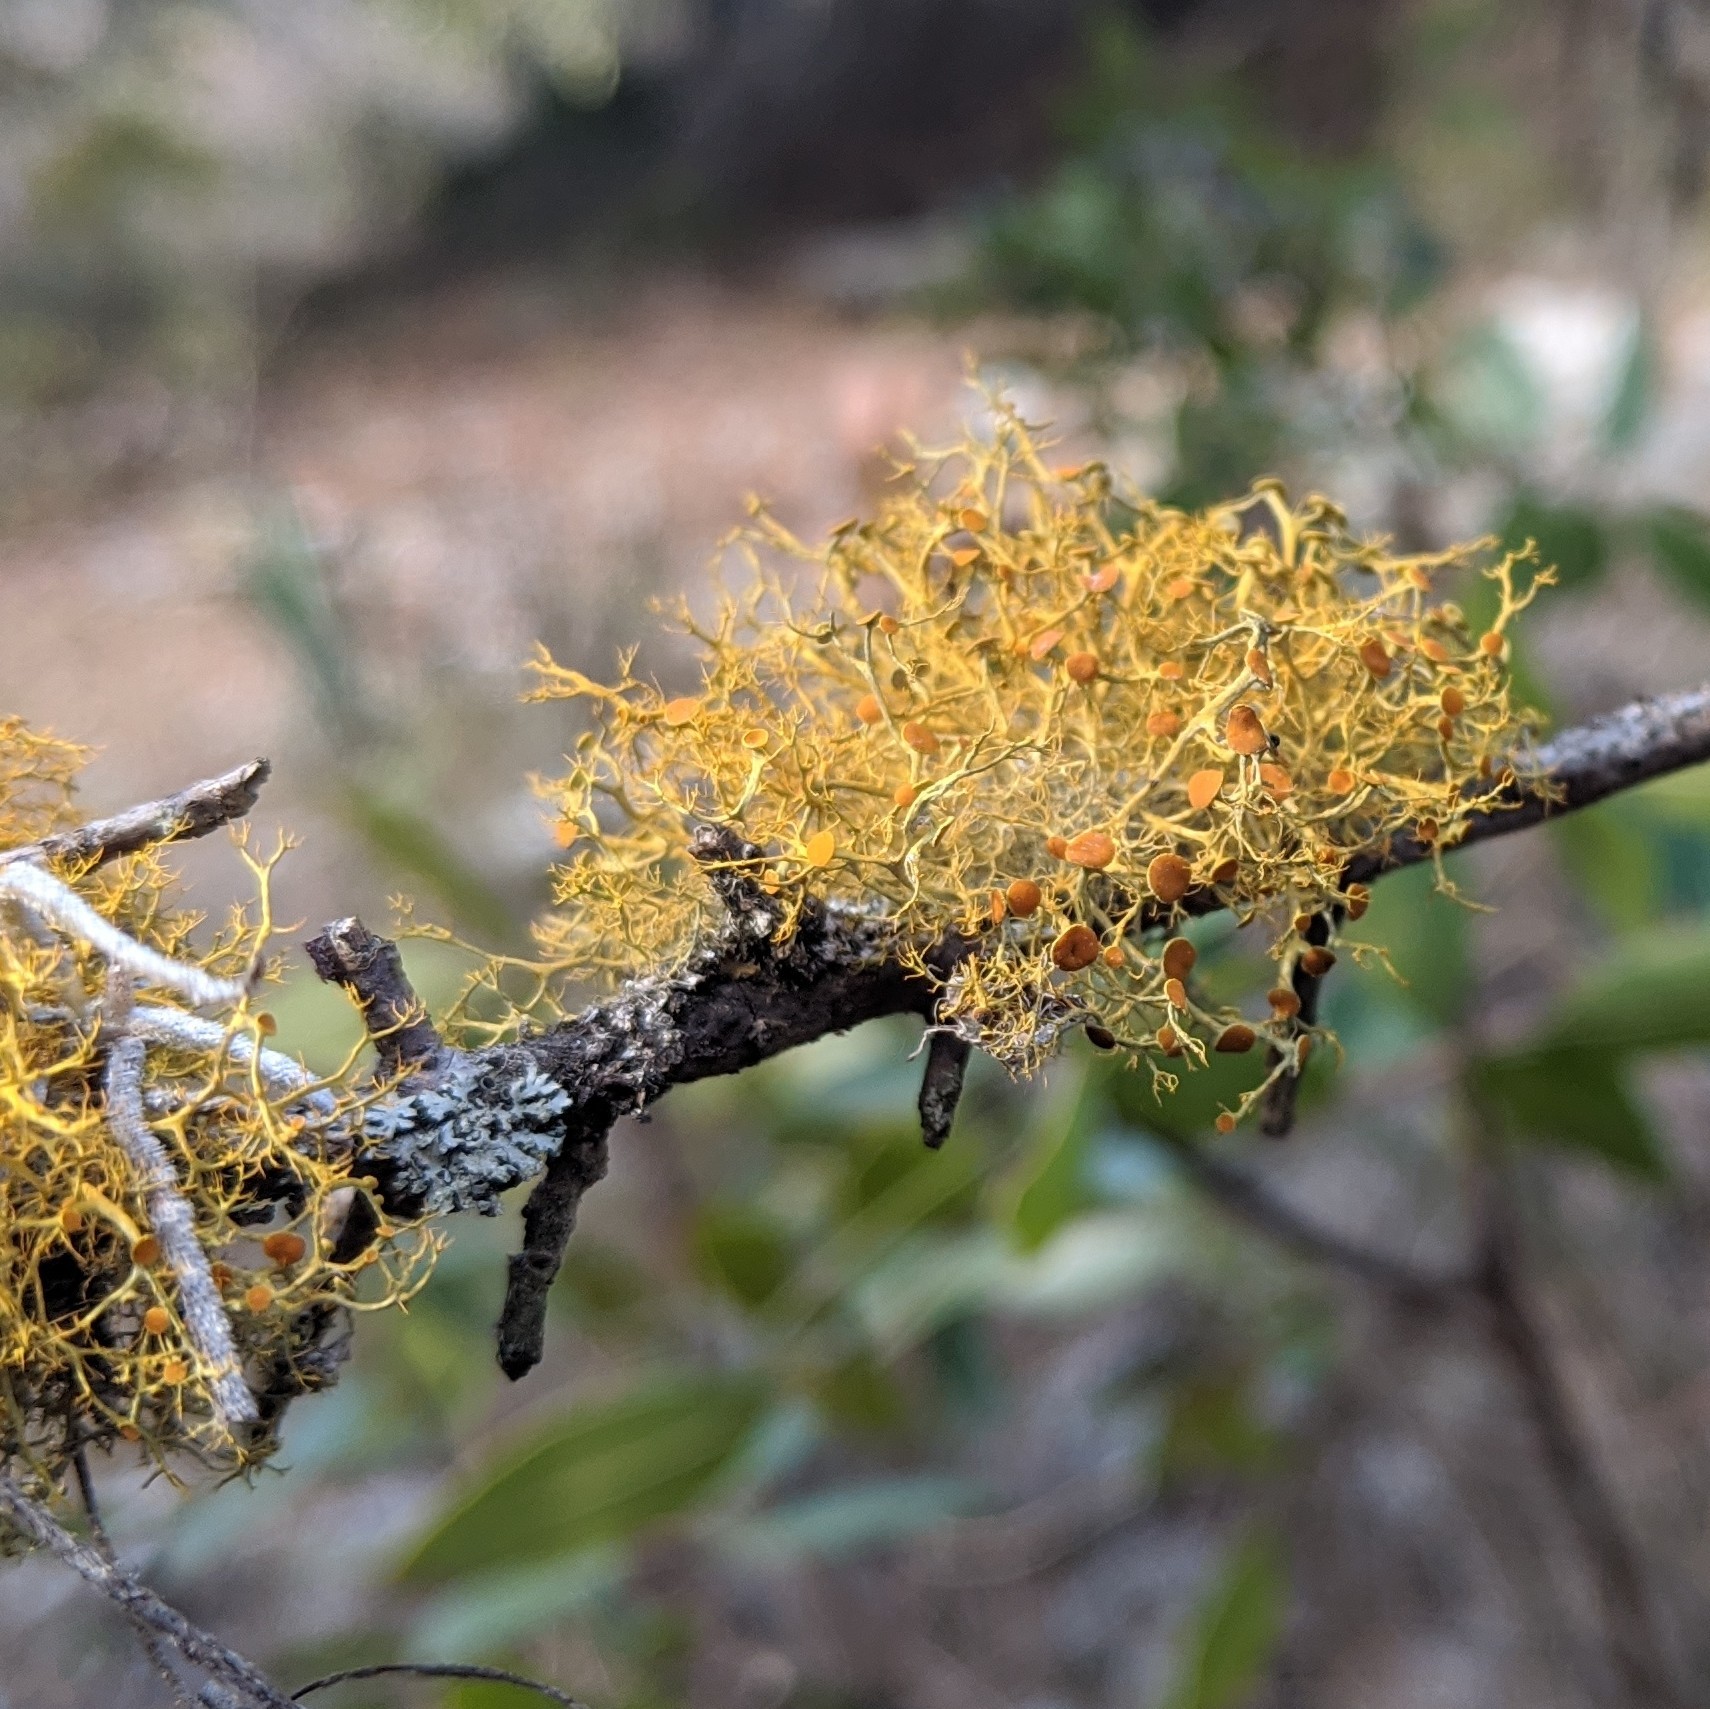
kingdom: Fungi
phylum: Ascomycota
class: Lecanoromycetes
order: Teloschistales
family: Teloschistaceae
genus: Teloschistes
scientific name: Teloschistes exilis
